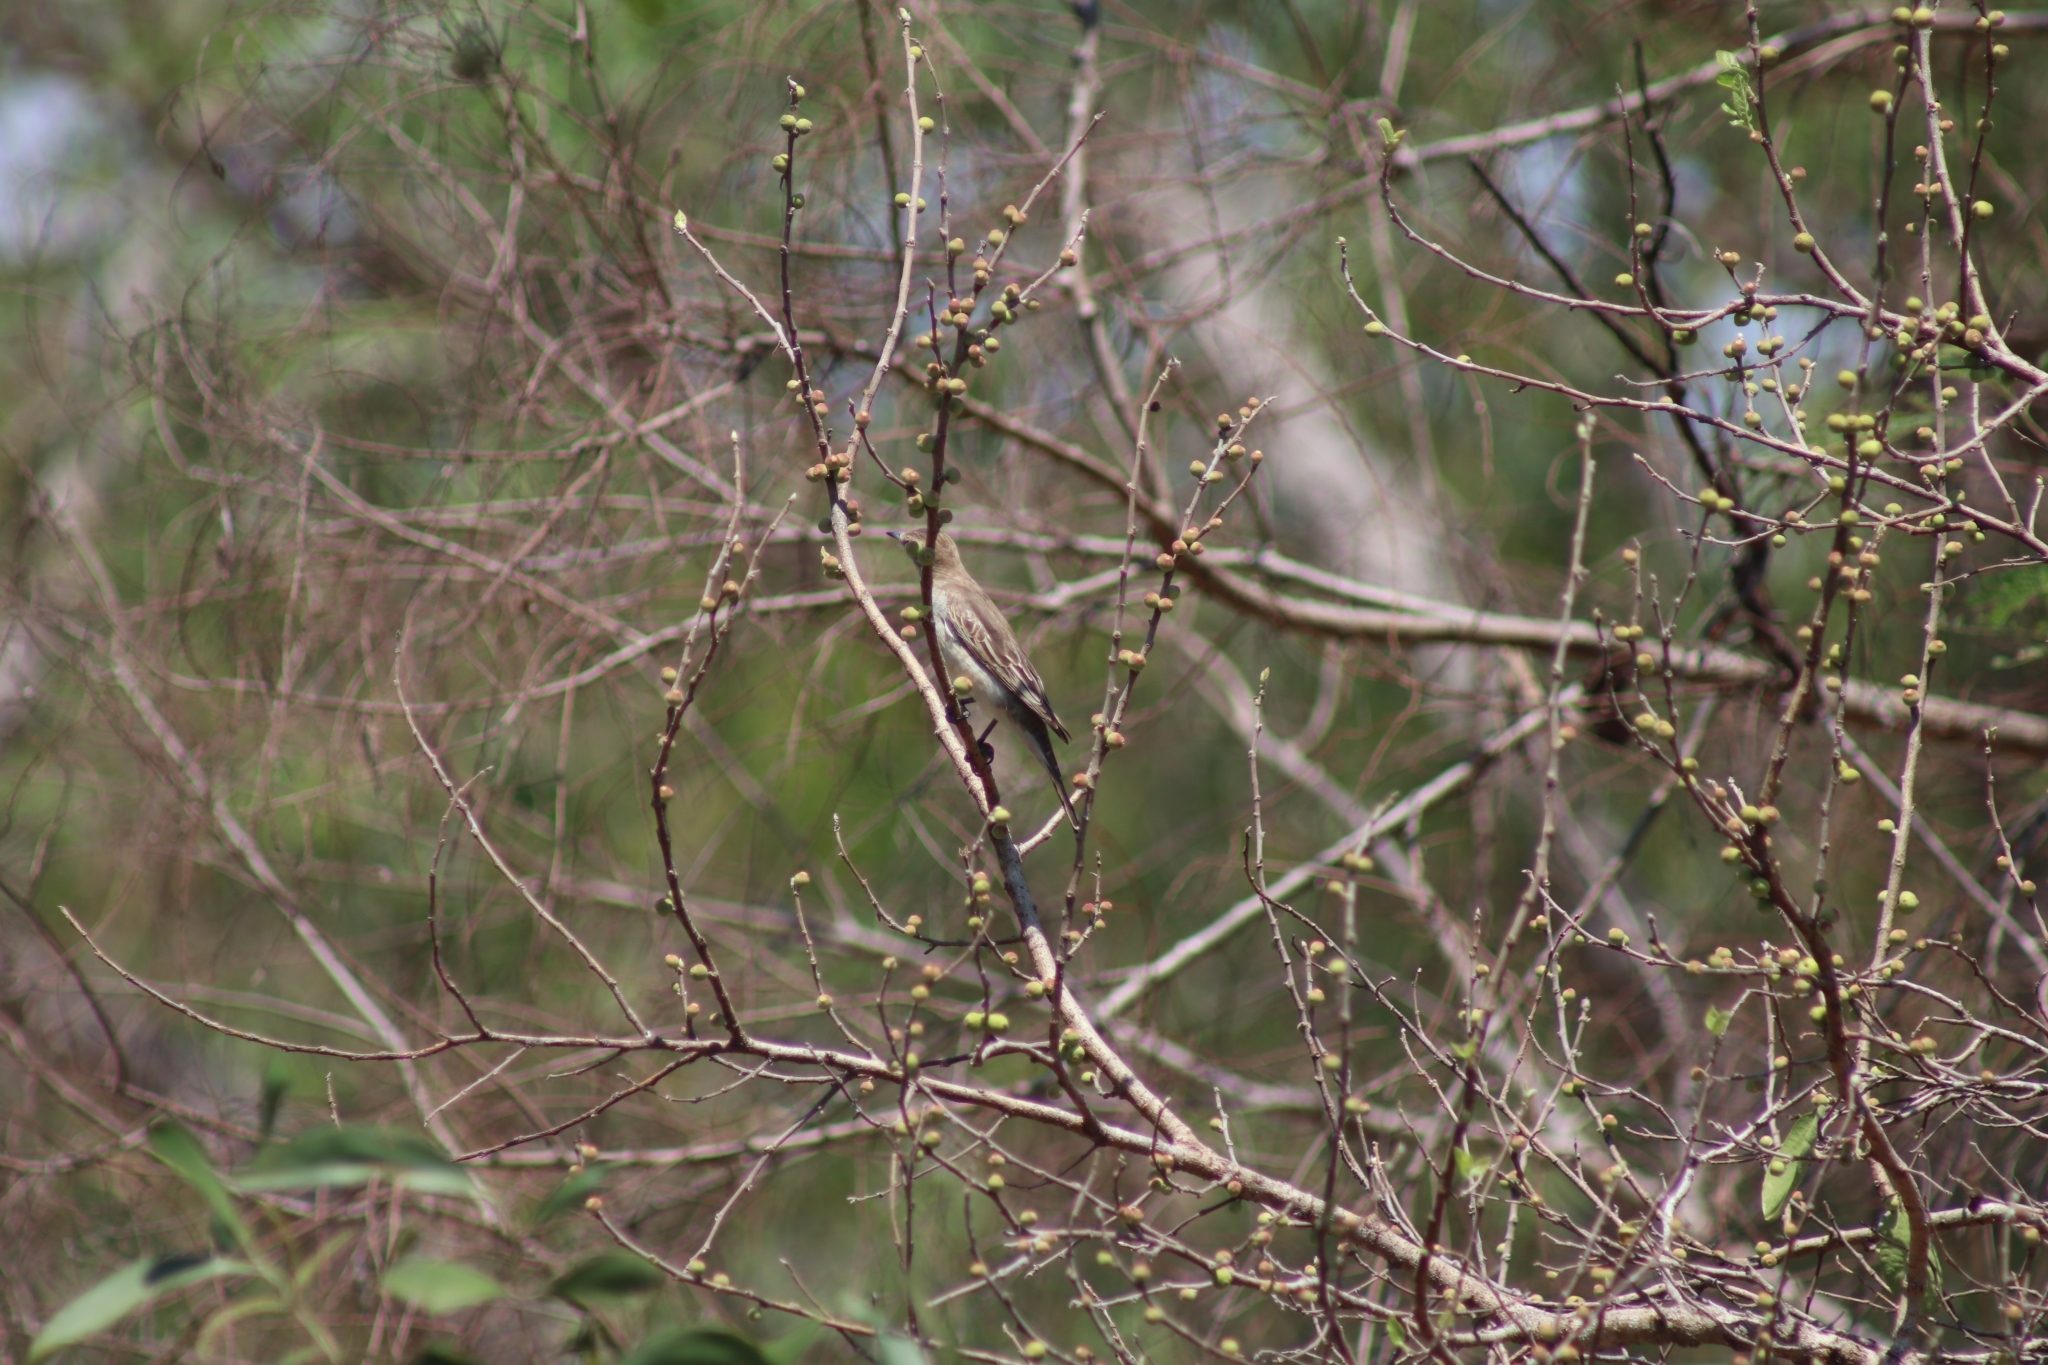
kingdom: Animalia
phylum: Chordata
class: Aves
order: Passeriformes
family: Campephagidae
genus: Lalage
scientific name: Lalage tricolor
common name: White-winged triller
